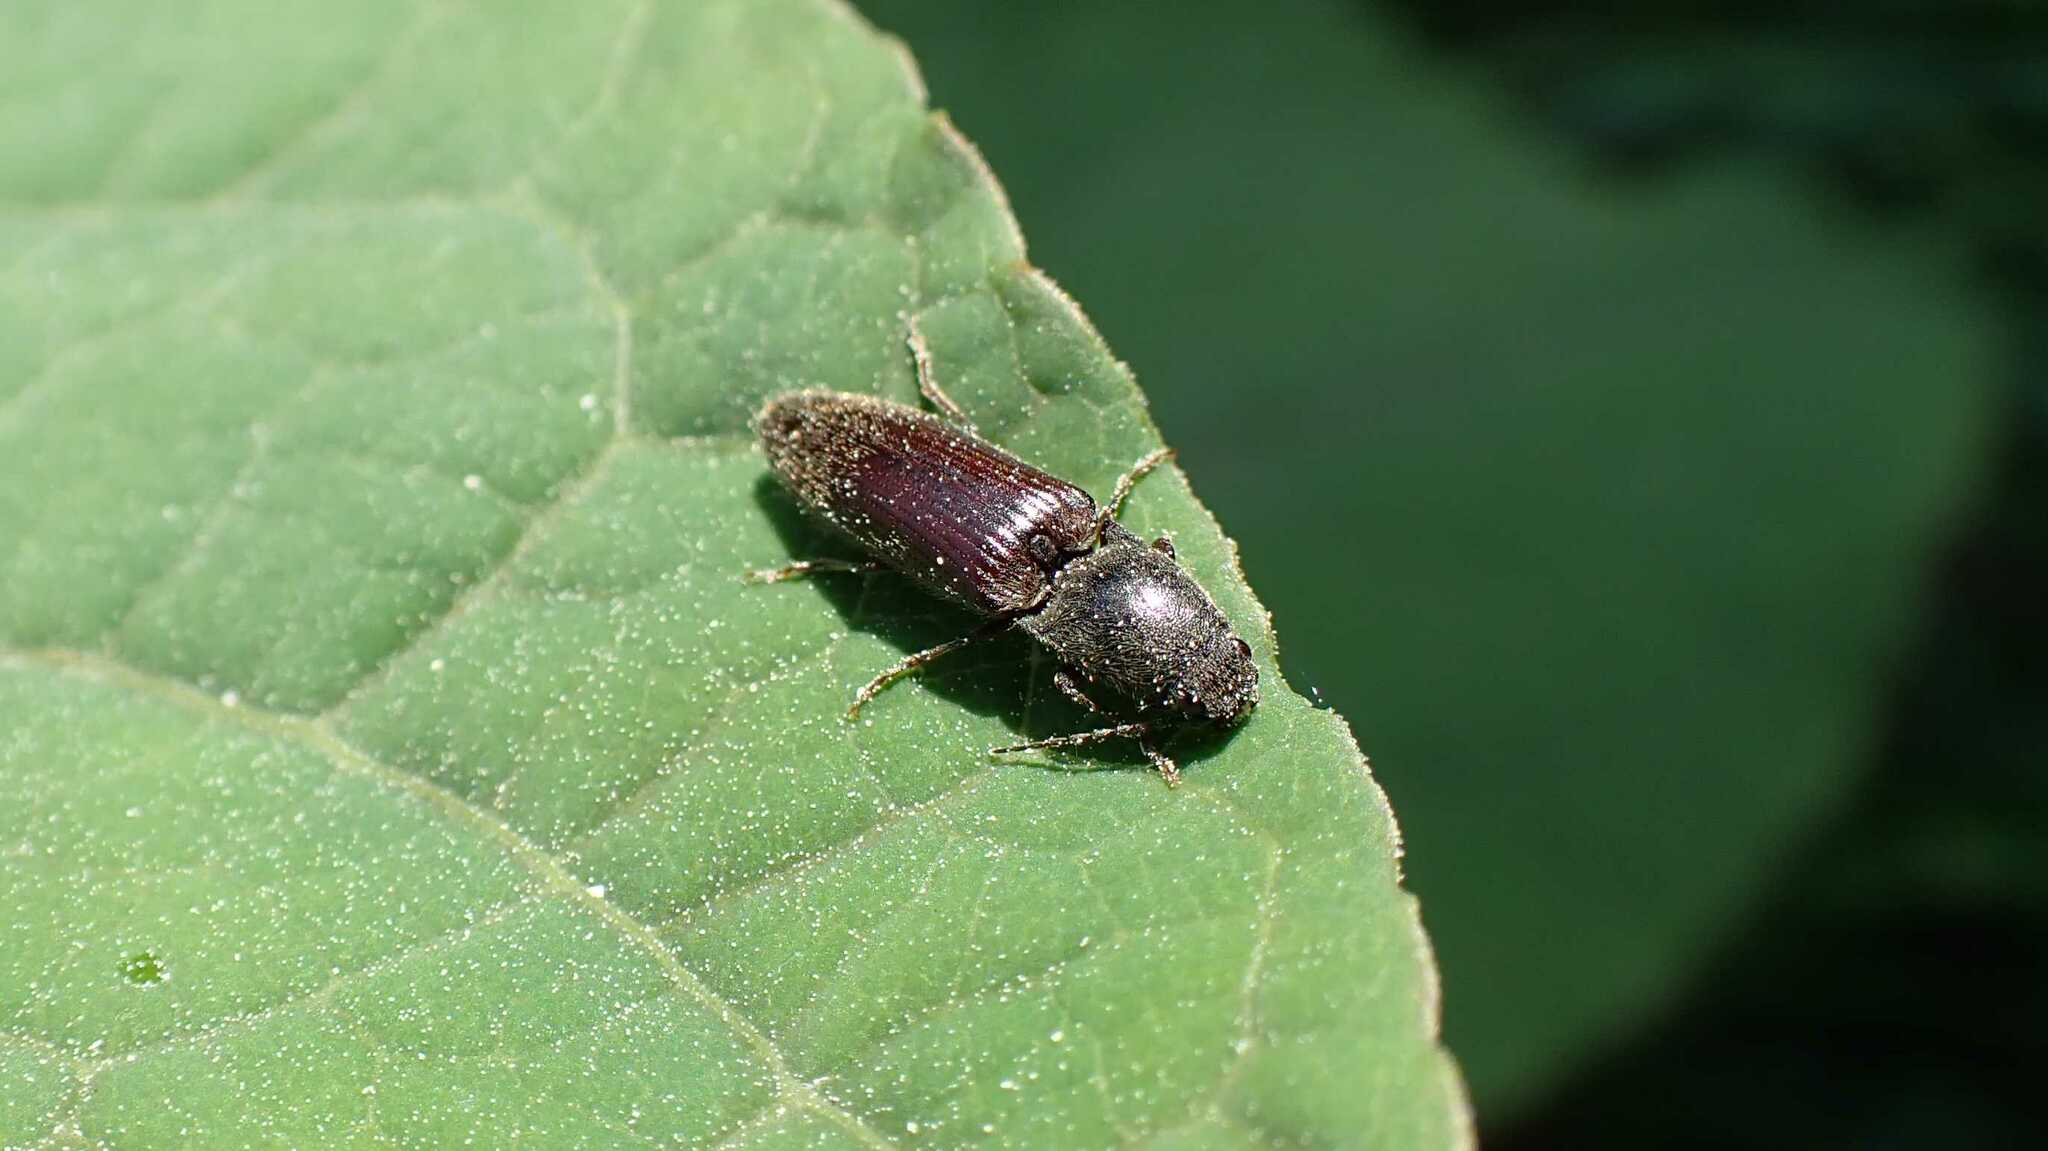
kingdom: Animalia
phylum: Arthropoda
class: Insecta
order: Coleoptera
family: Elateridae
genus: Athous
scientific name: Athous haemorrhoidalis
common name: Red-brown click beetle
